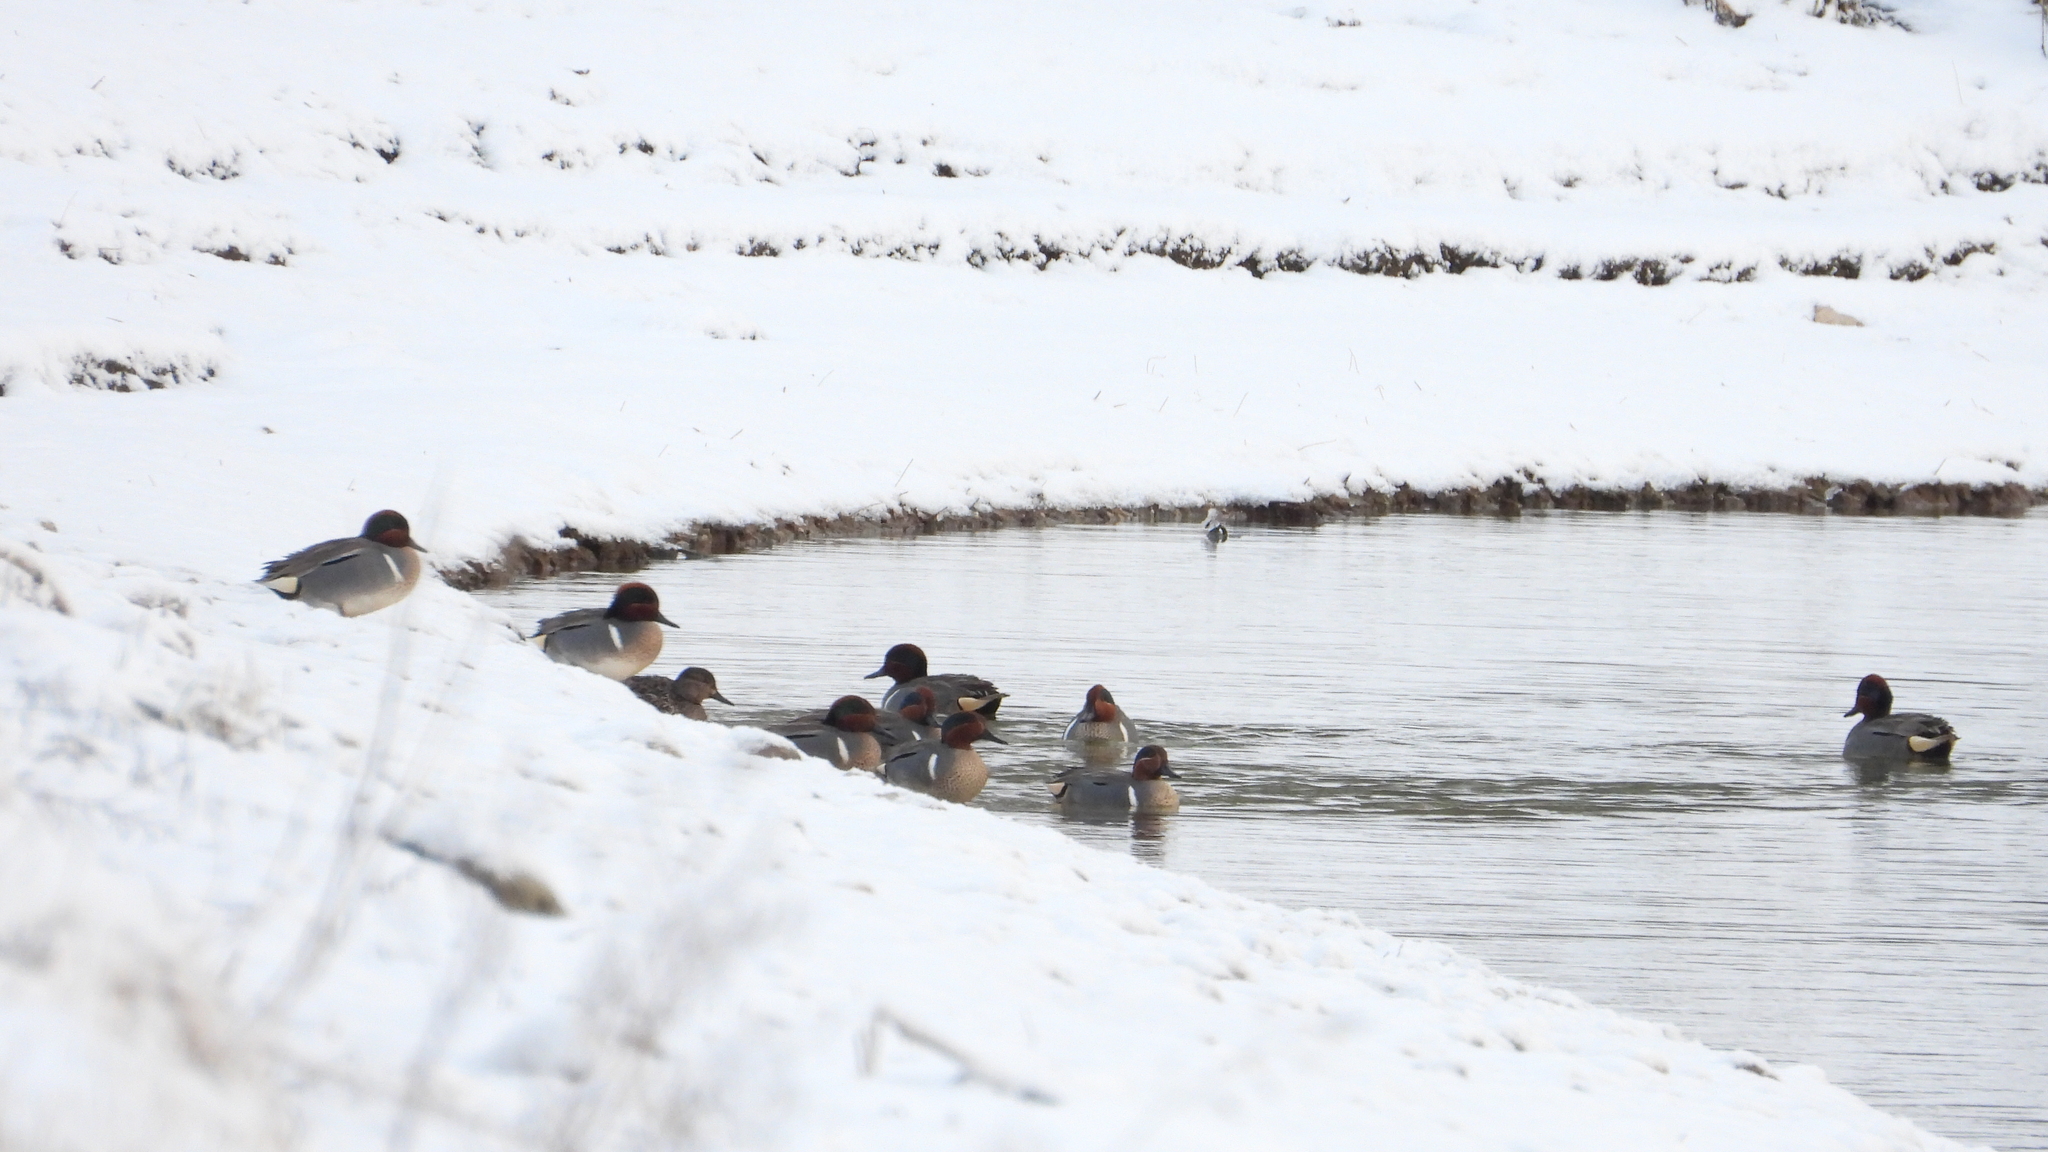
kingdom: Animalia
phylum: Chordata
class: Aves
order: Anseriformes
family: Anatidae
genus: Anas
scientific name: Anas crecca
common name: Eurasian teal
